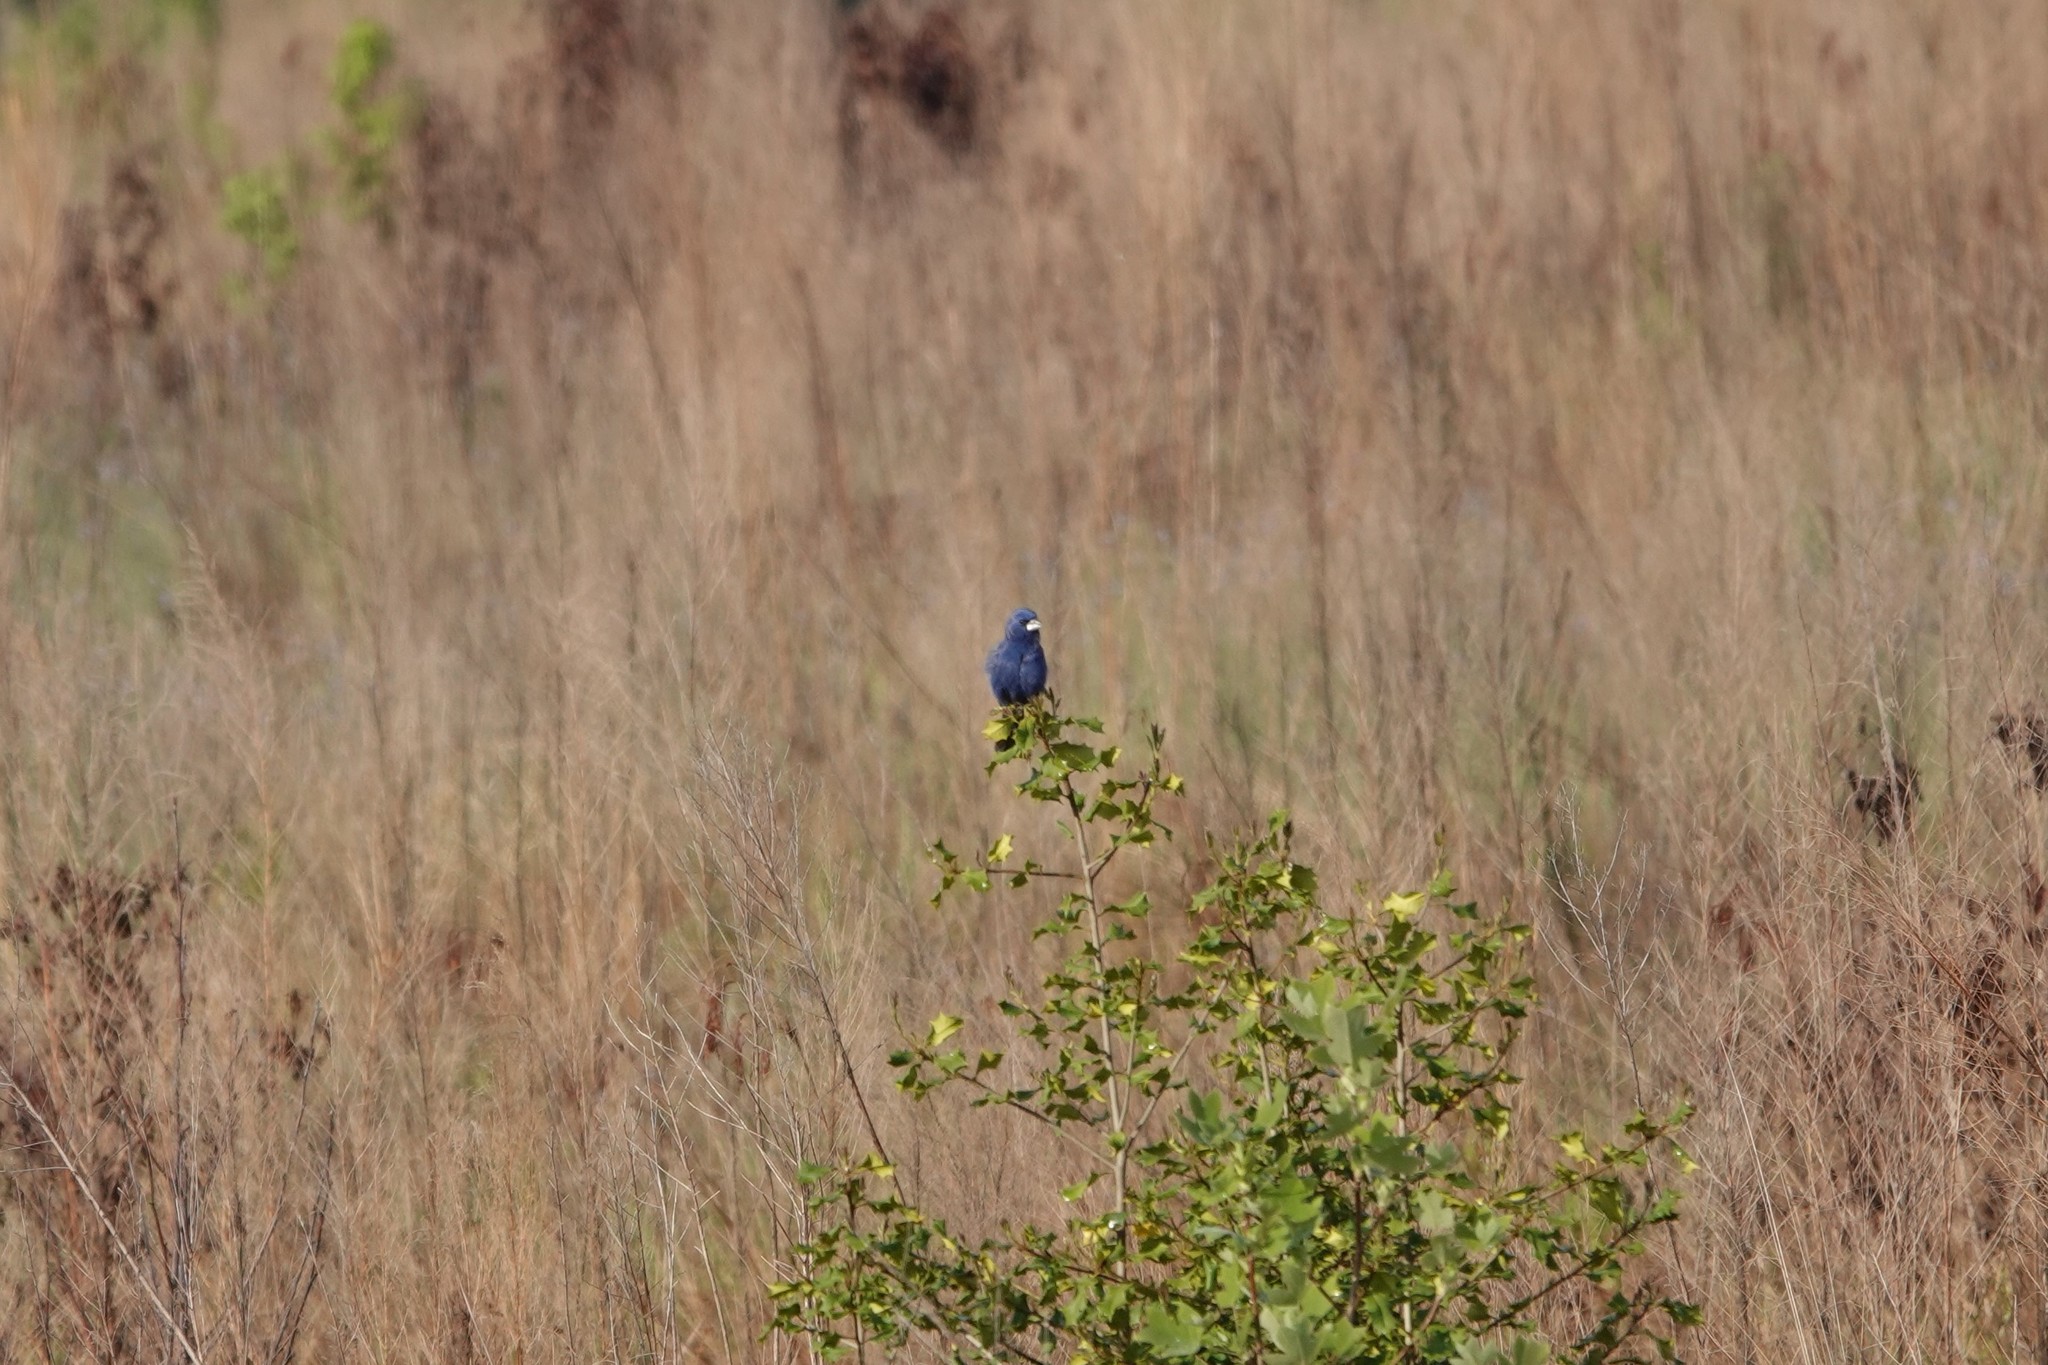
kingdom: Animalia
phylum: Chordata
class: Aves
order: Passeriformes
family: Cardinalidae
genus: Passerina
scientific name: Passerina caerulea
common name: Blue grosbeak
